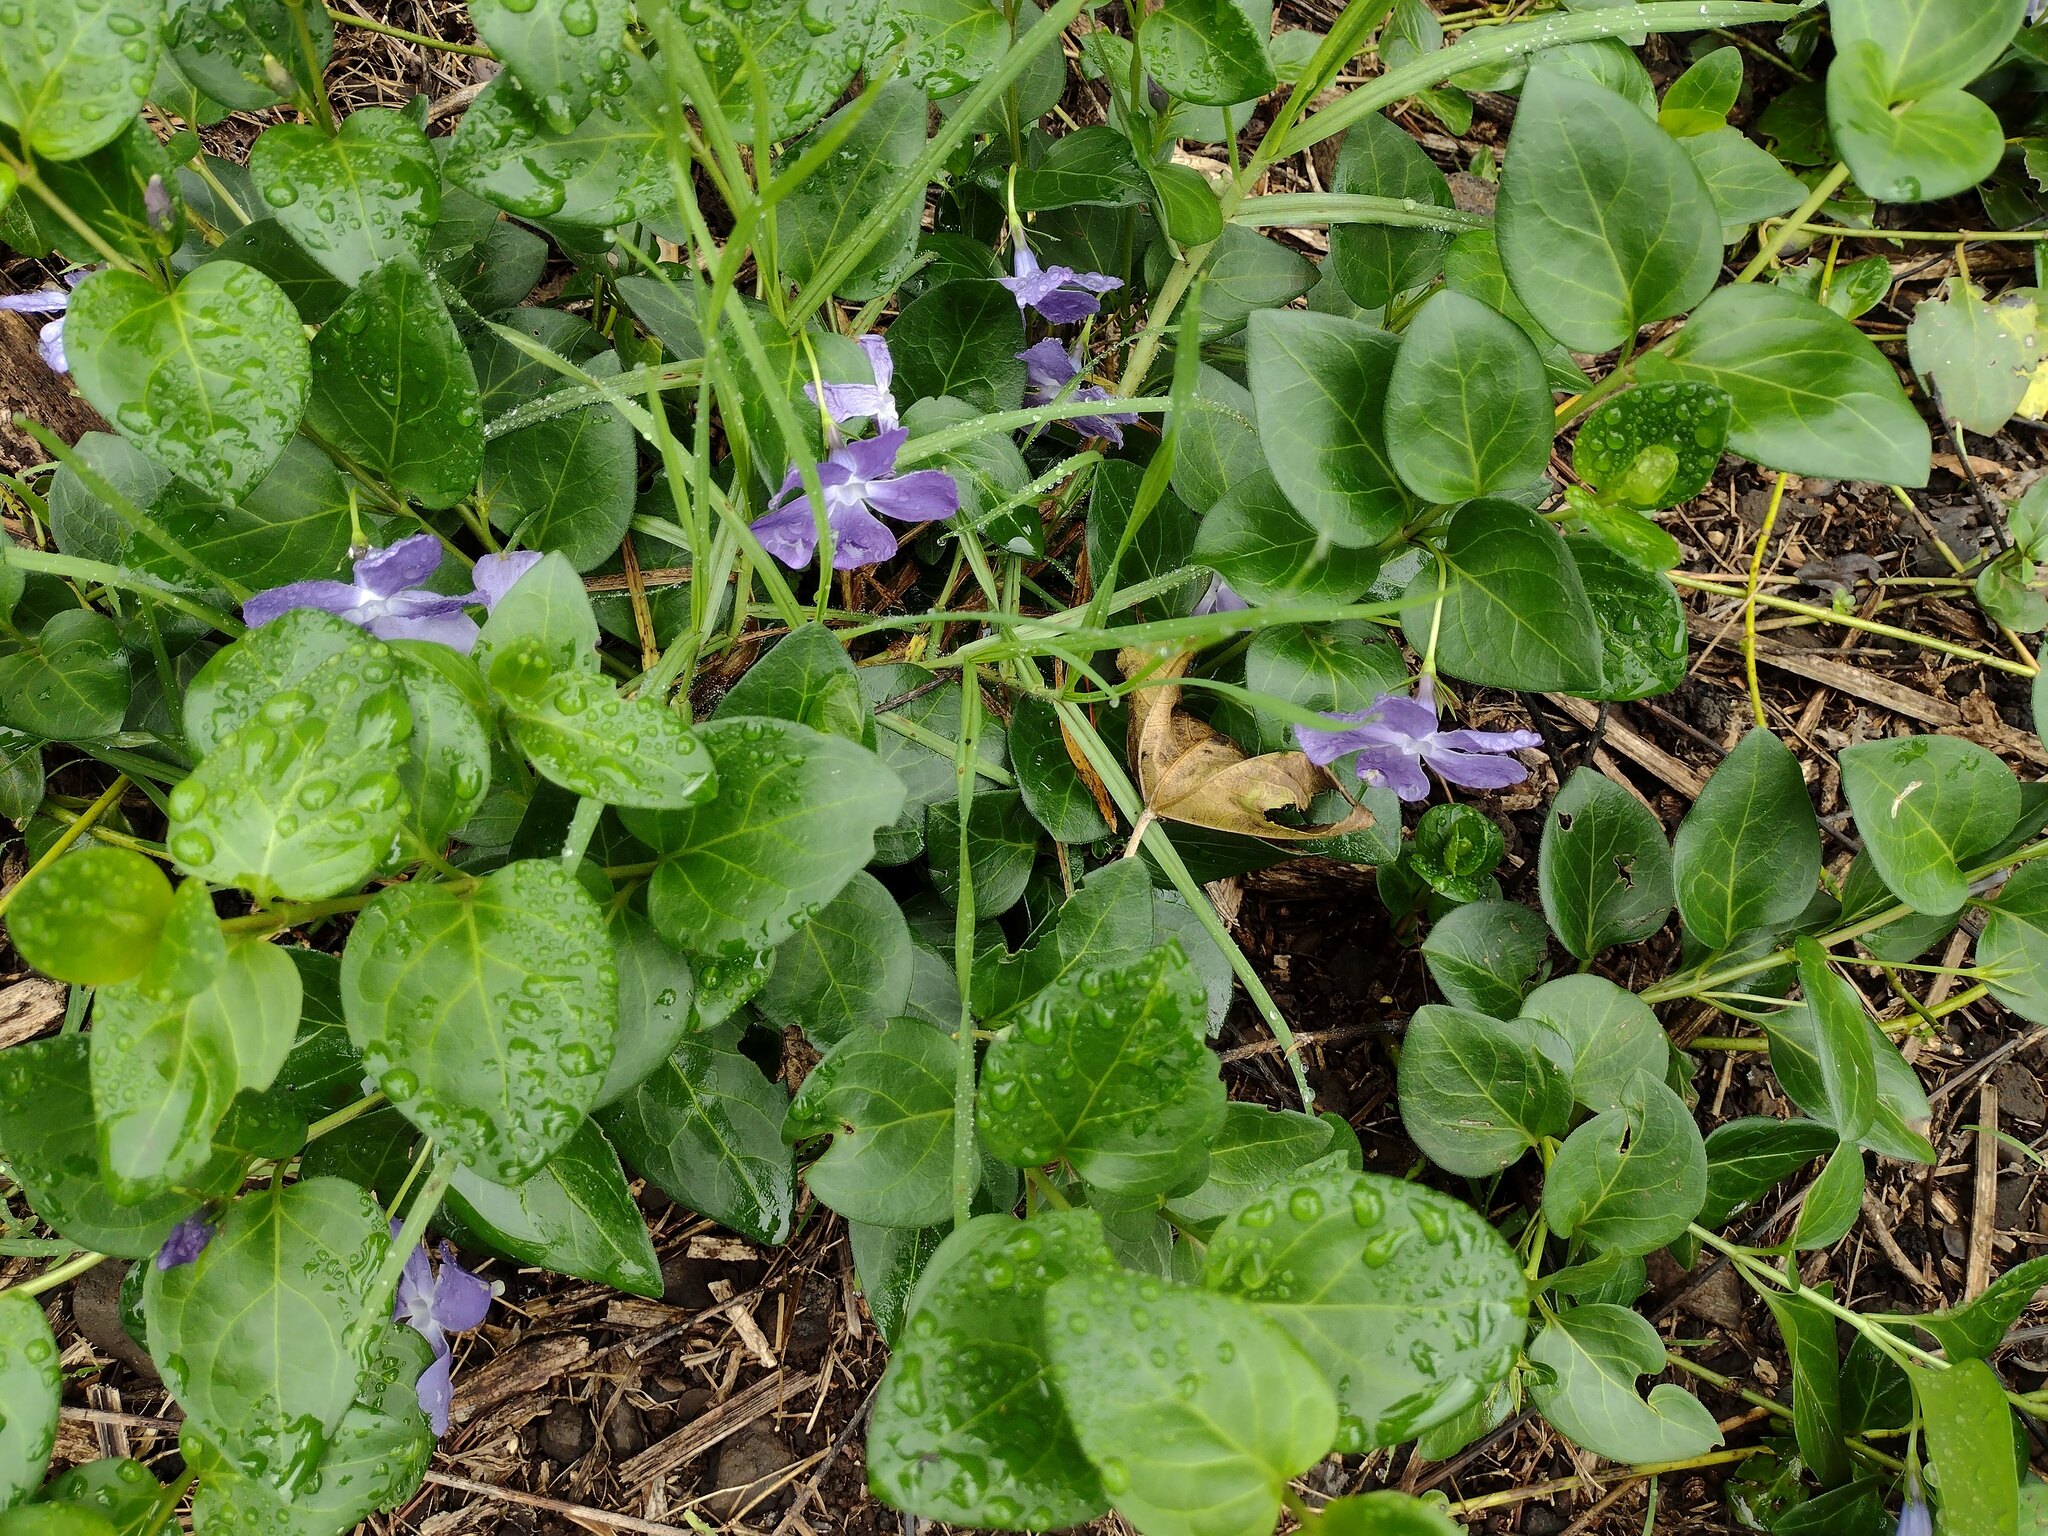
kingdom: Plantae
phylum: Tracheophyta
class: Magnoliopsida
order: Gentianales
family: Apocynaceae
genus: Vinca
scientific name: Vinca major
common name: Greater periwinkle
